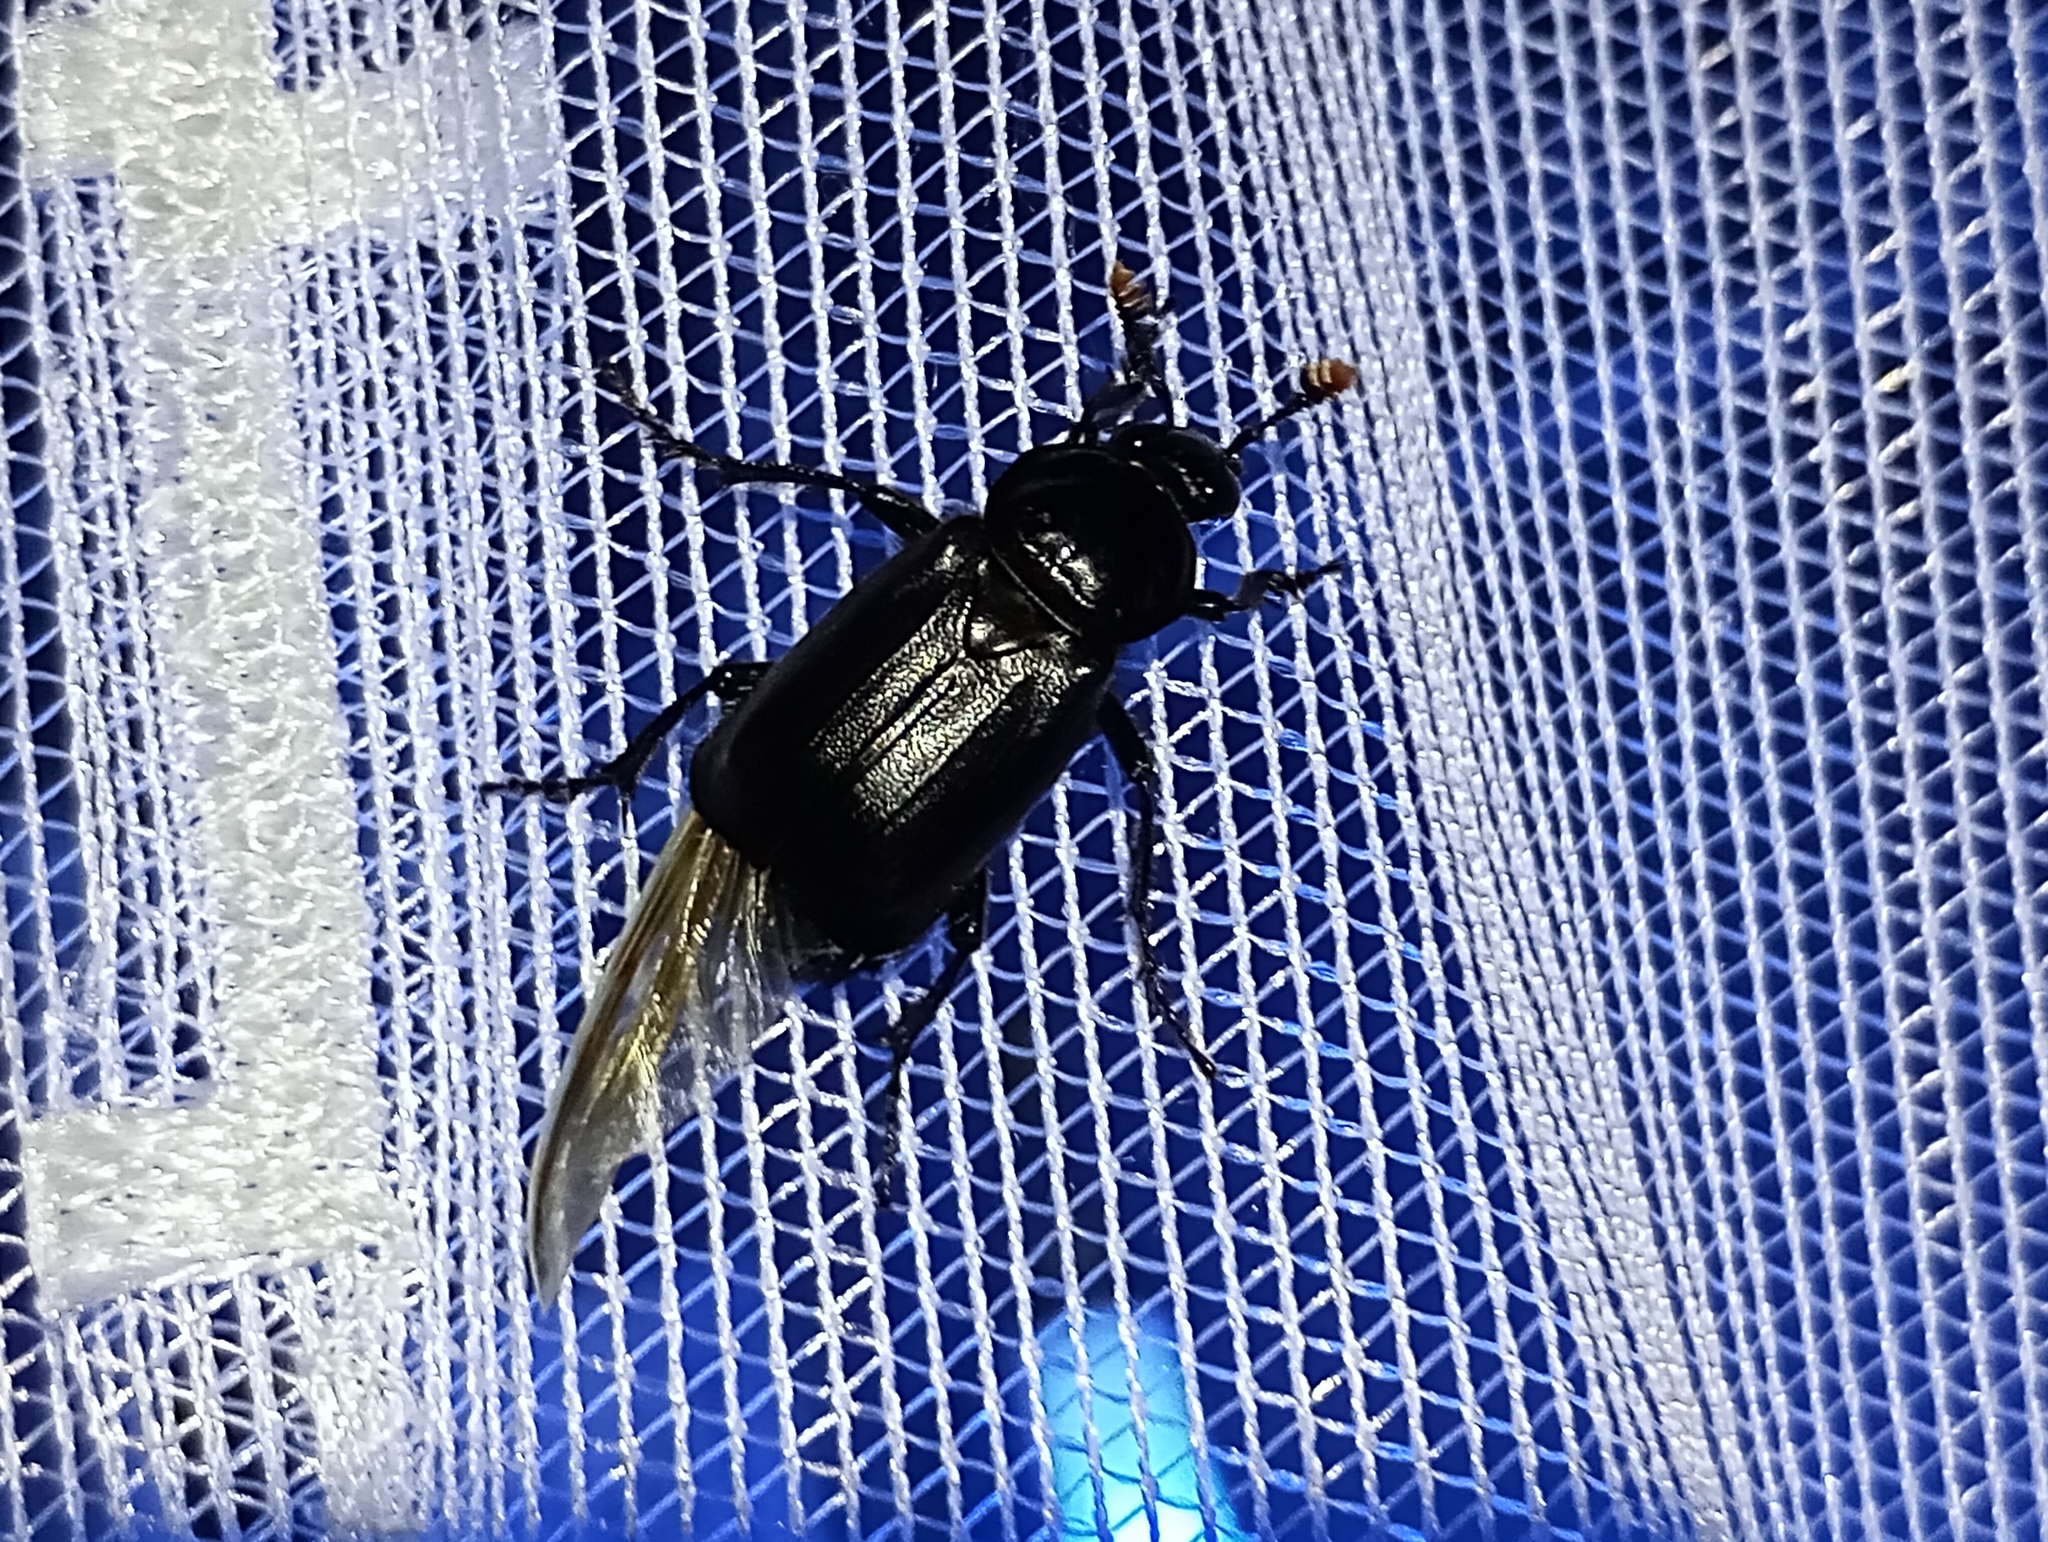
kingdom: Animalia
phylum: Arthropoda
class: Insecta
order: Coleoptera
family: Staphylinidae
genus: Nicrophorus
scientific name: Nicrophorus humator
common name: Black sexton beetle
